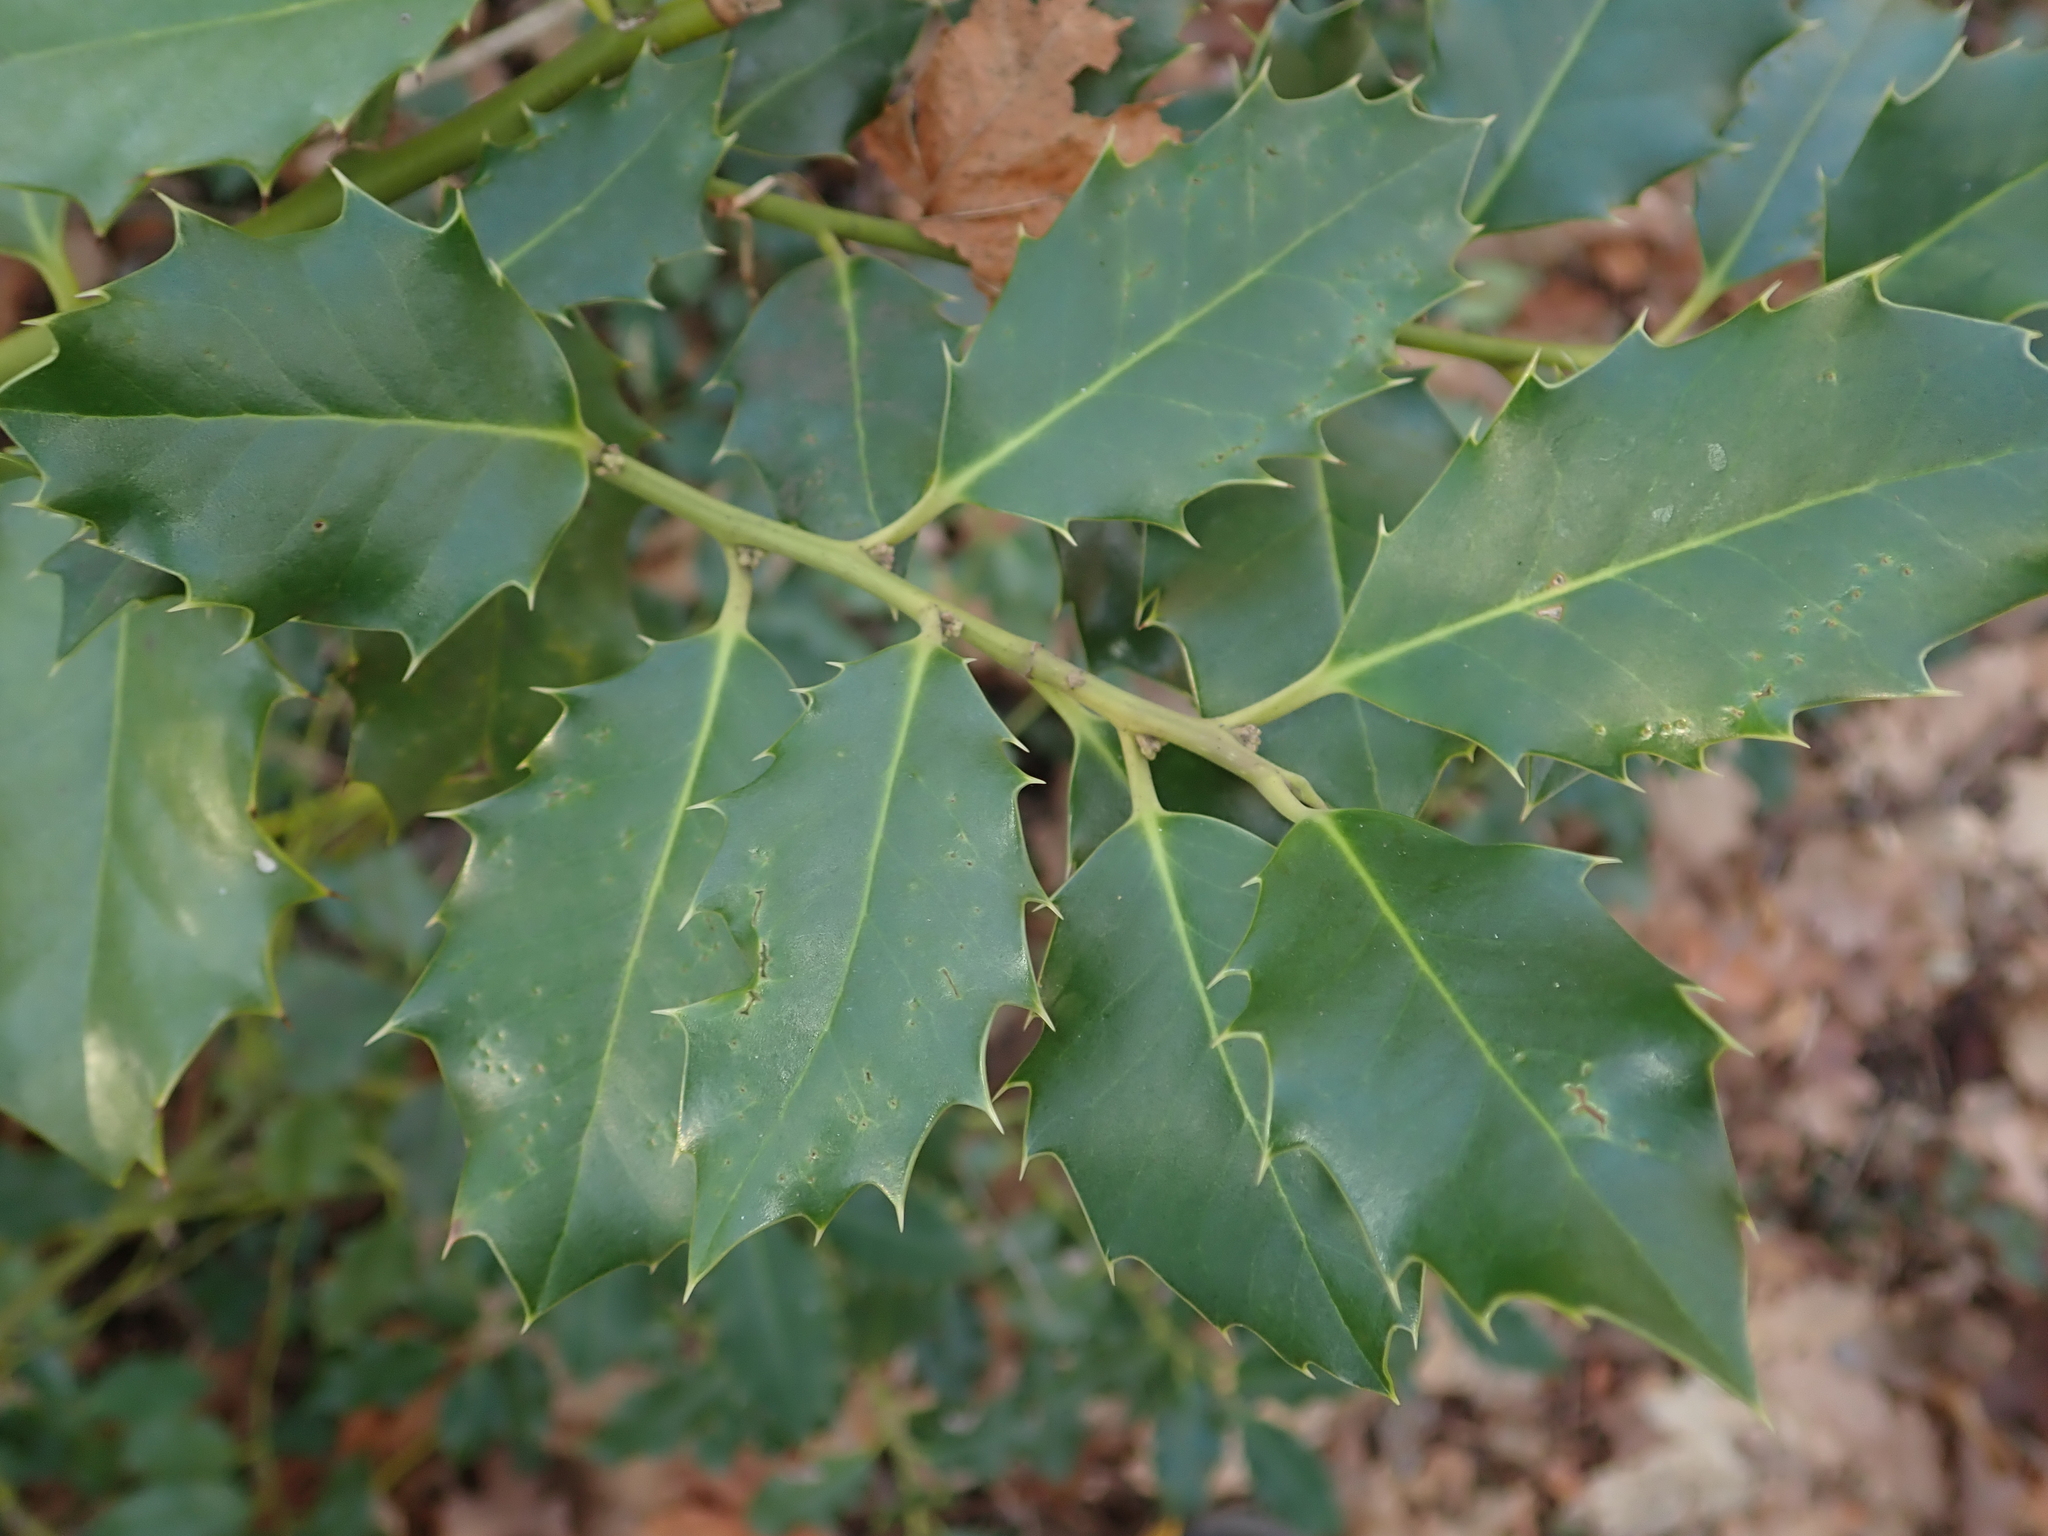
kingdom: Plantae
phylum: Tracheophyta
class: Magnoliopsida
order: Aquifoliales
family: Aquifoliaceae
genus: Ilex
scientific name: Ilex aquifolium
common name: English holly
